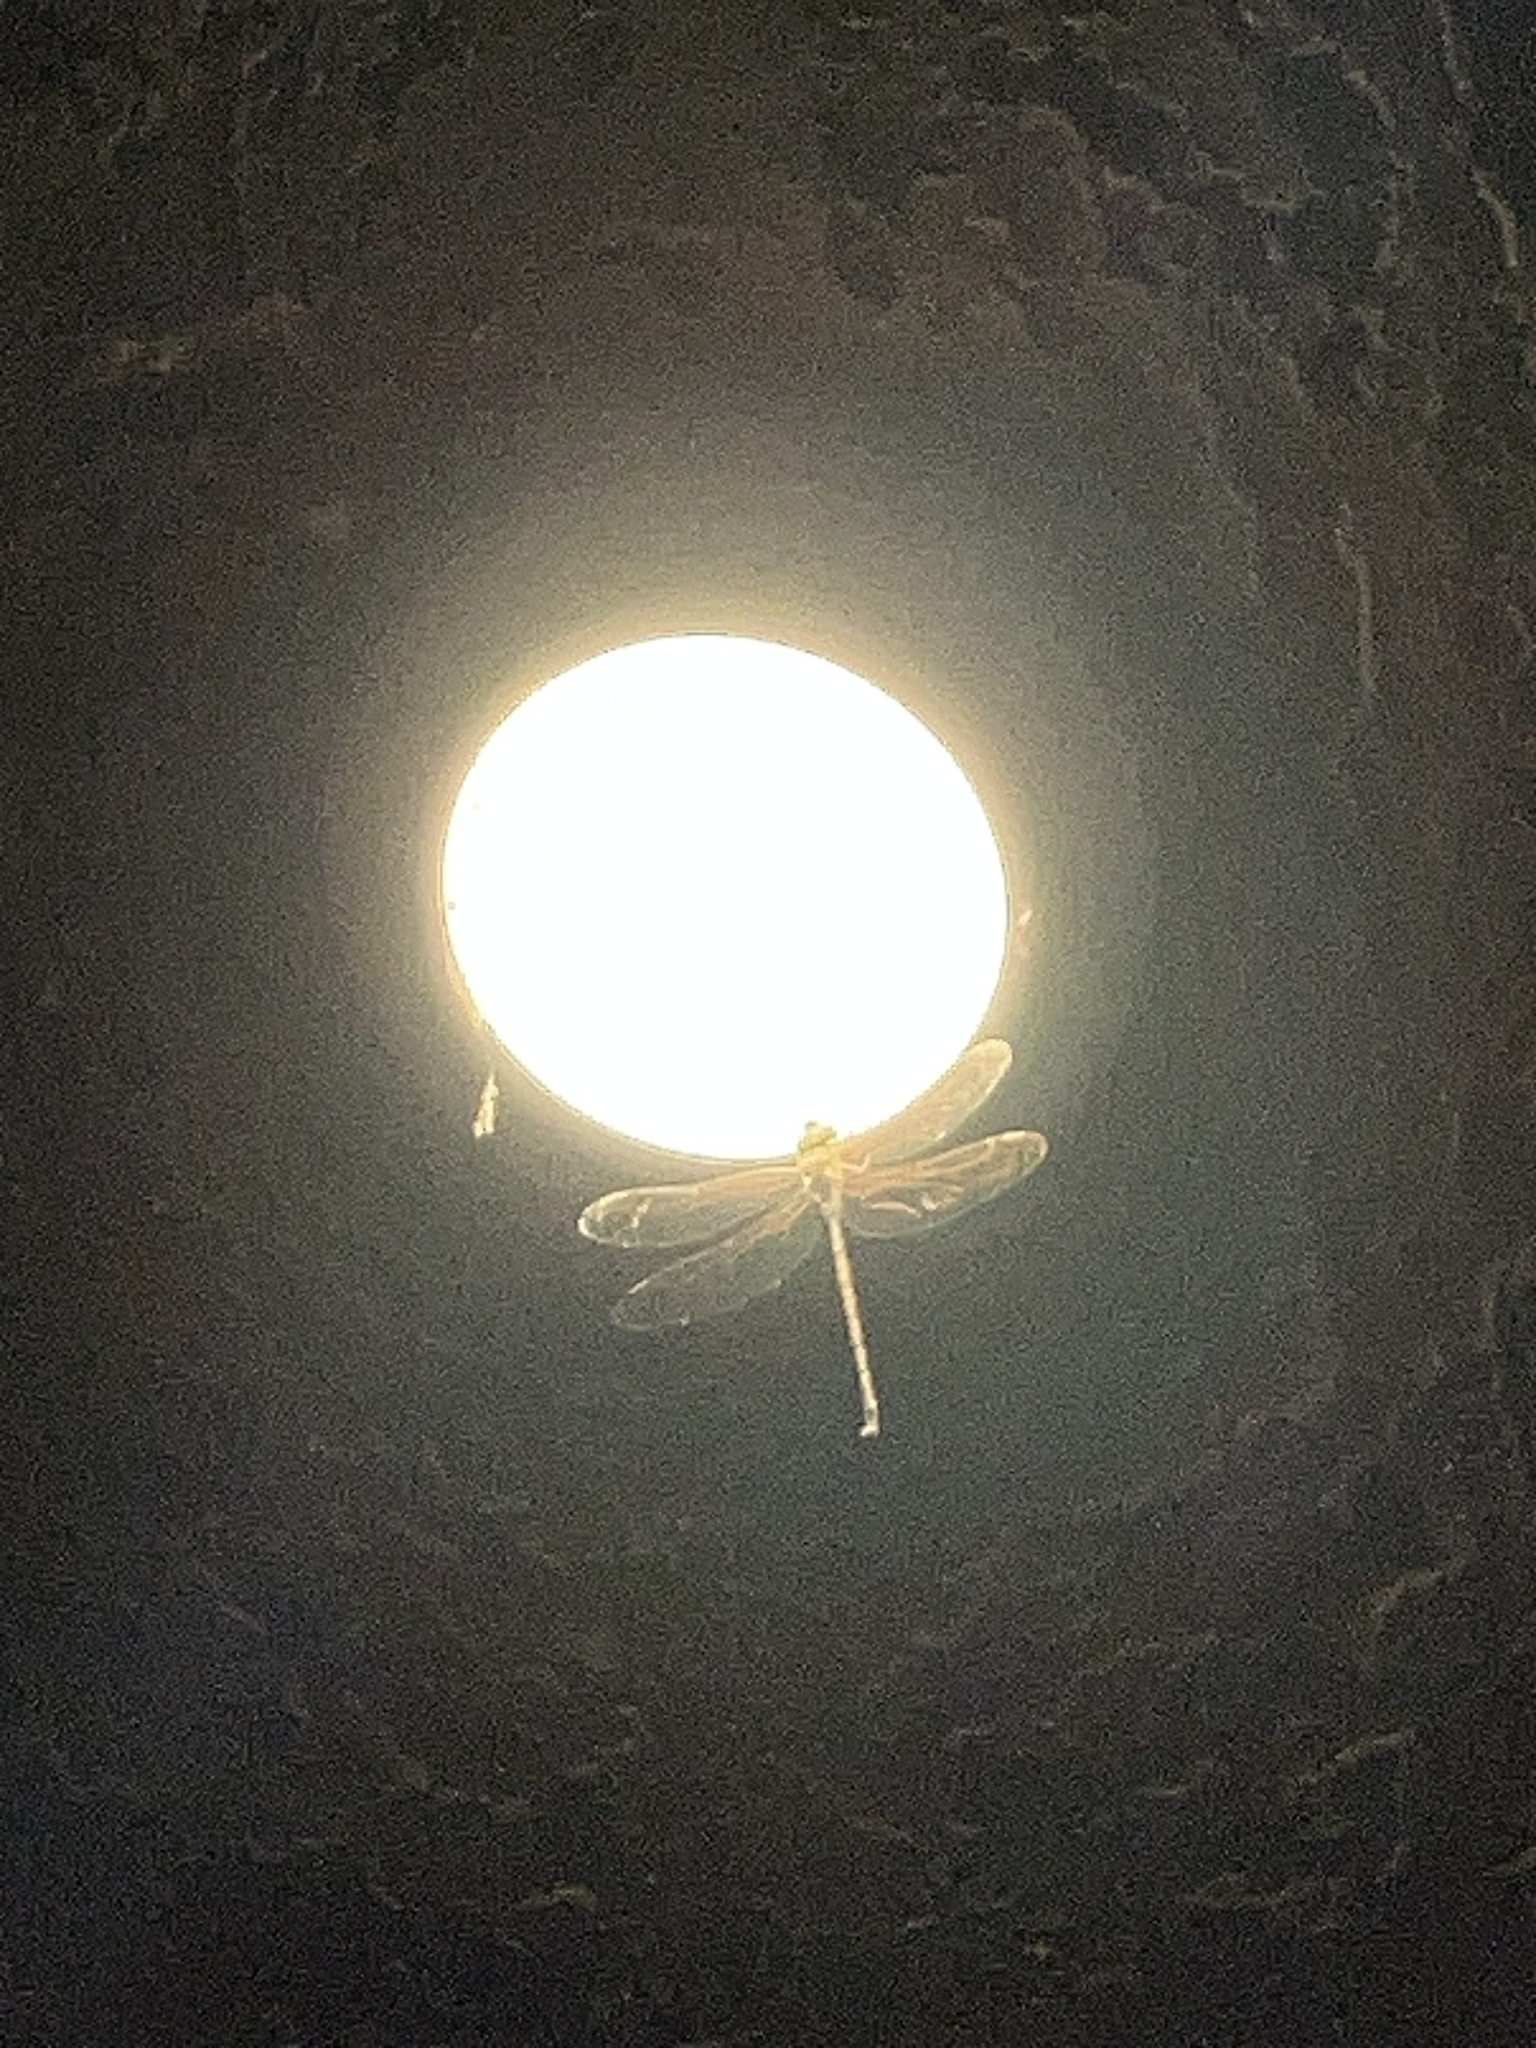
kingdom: Animalia
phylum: Arthropoda
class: Insecta
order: Odonata
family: Aeshnidae
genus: Gynacantha
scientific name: Gynacantha nervosa
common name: Twilight darner
